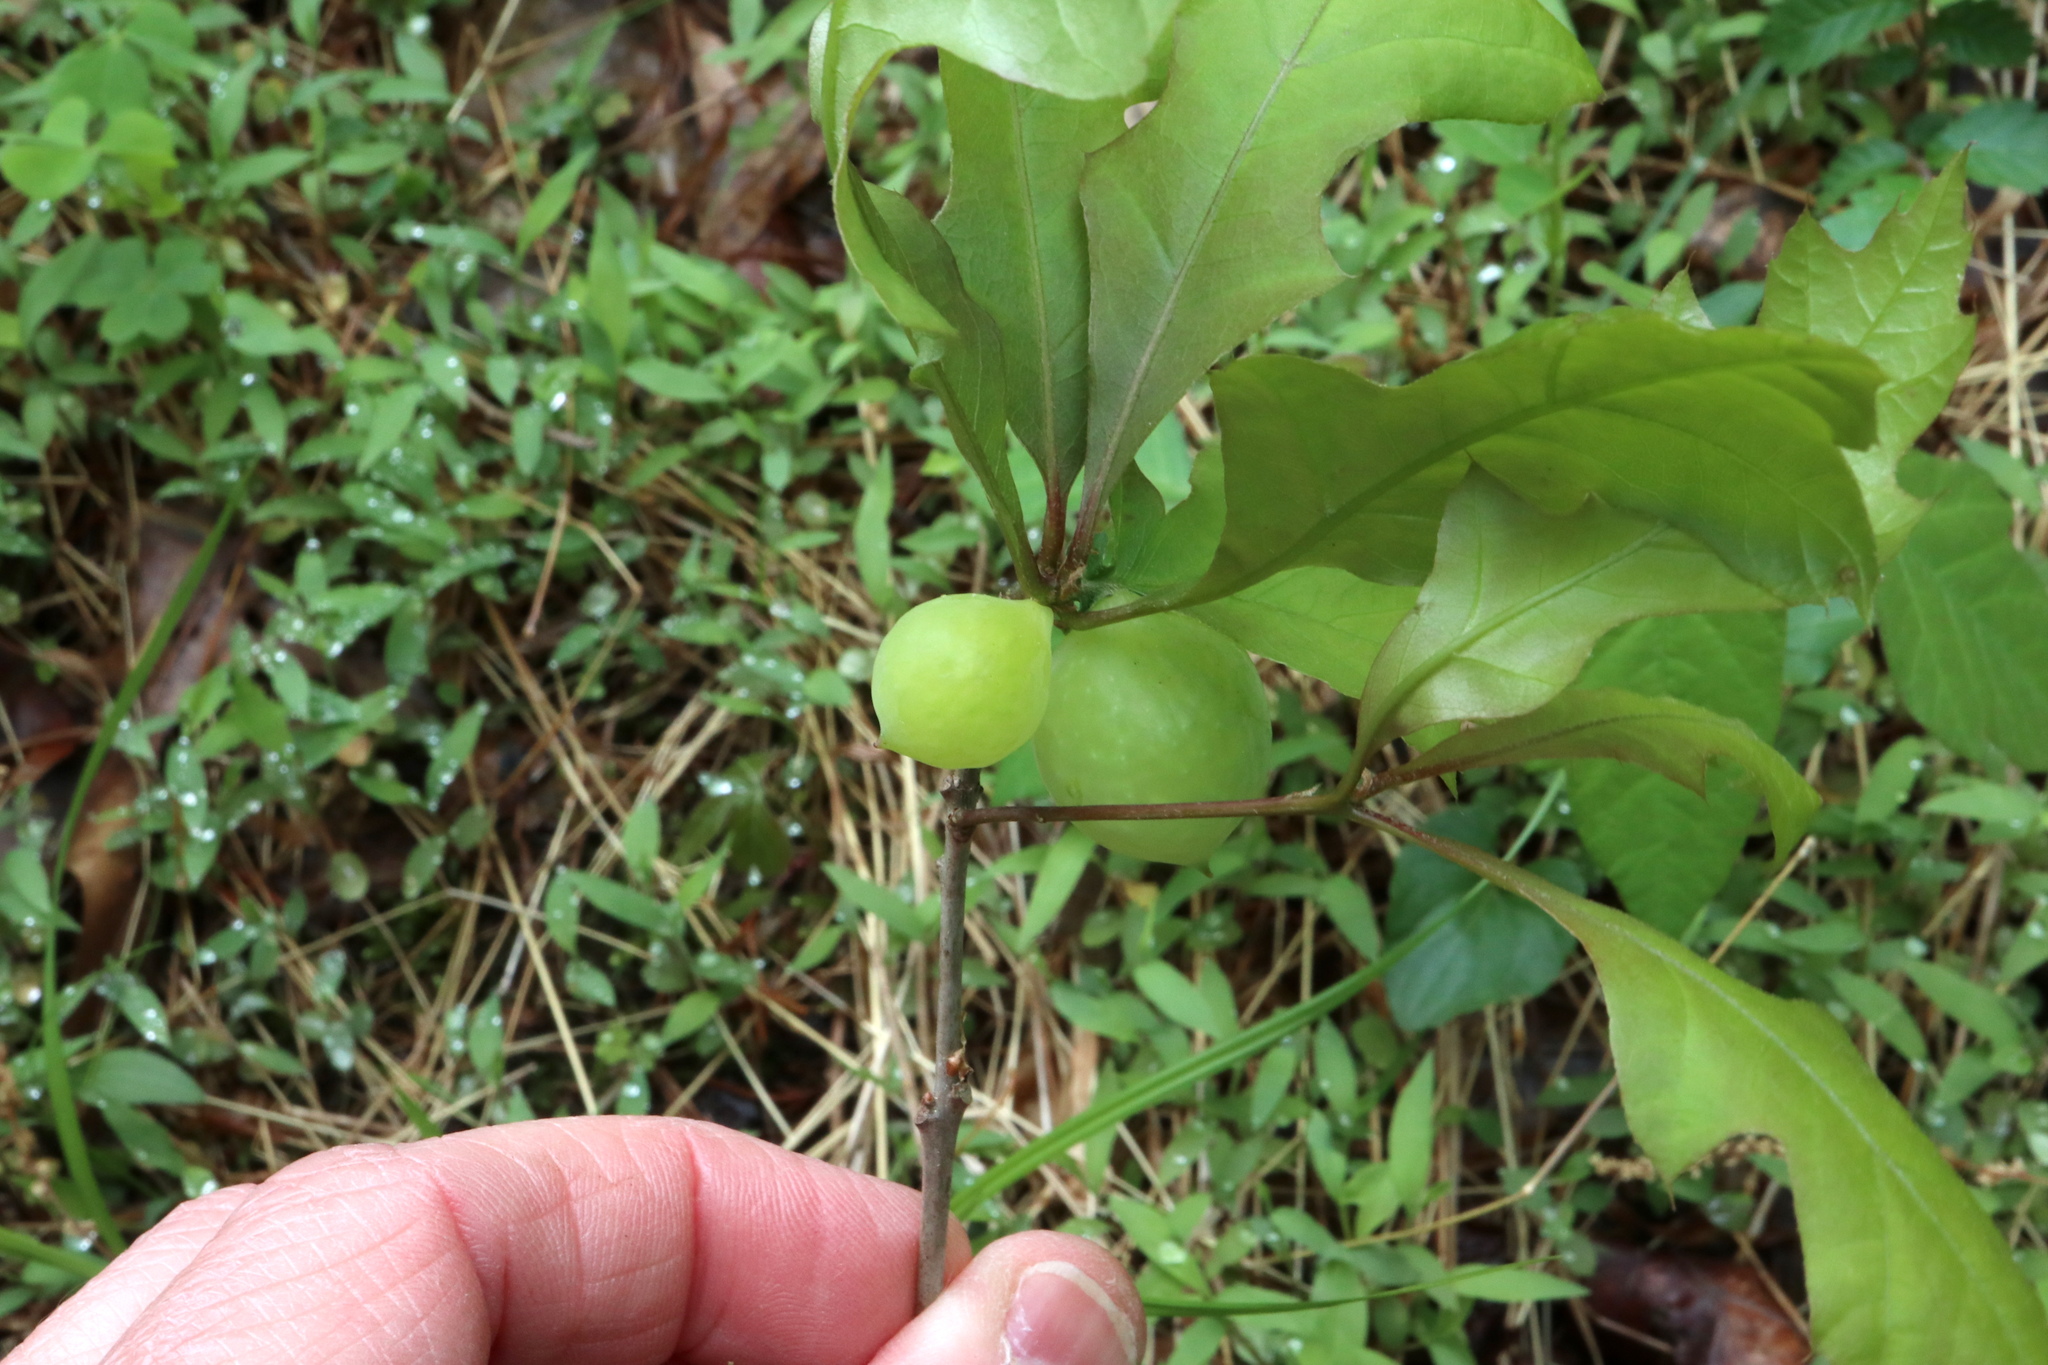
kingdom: Animalia
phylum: Arthropoda
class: Insecta
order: Hymenoptera
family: Cynipidae
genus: Amphibolips
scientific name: Amphibolips
